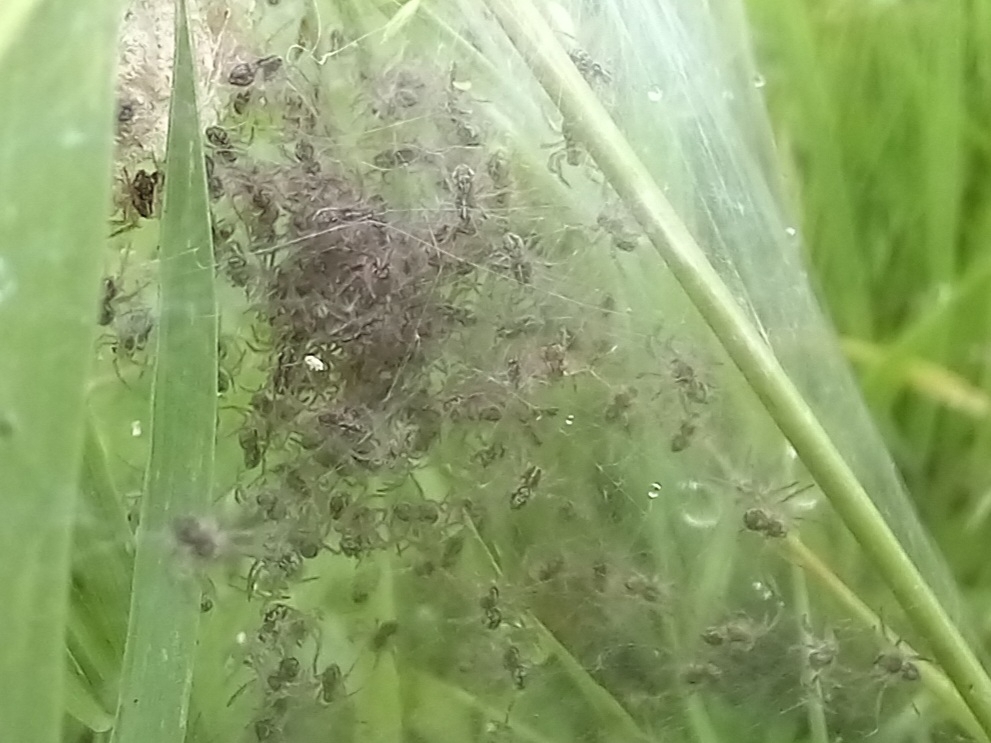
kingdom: Animalia
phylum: Arthropoda
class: Arachnida
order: Araneae
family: Pisauridae
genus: Pisaura
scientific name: Pisaura mirabilis
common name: Tent spider
